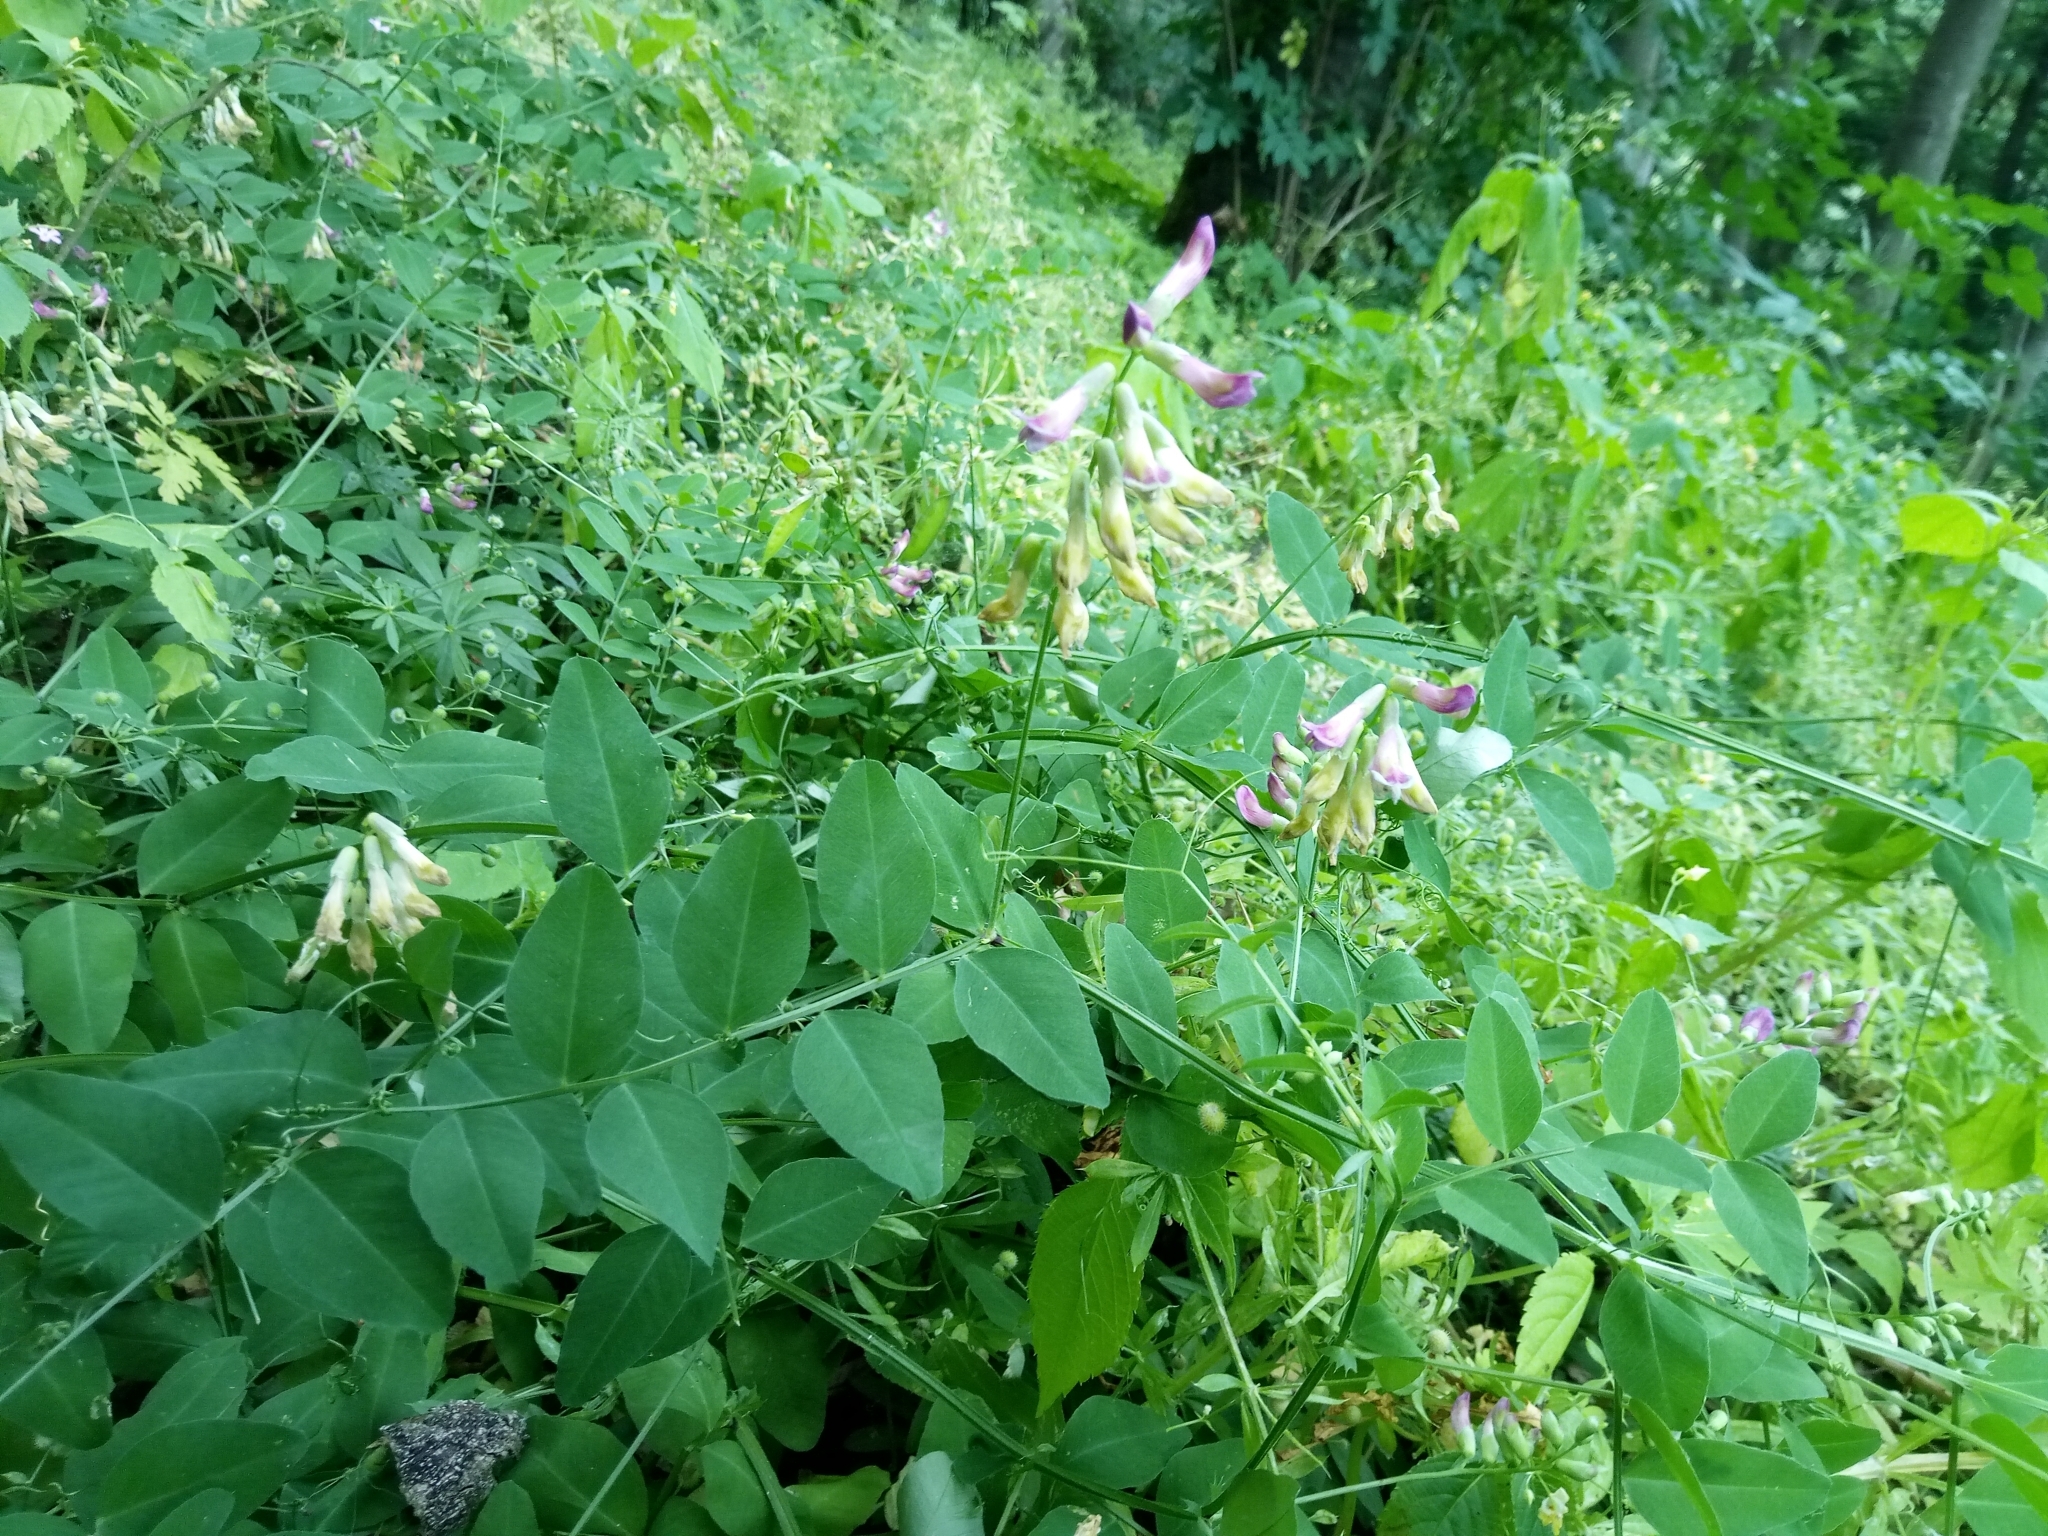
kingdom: Plantae
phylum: Tracheophyta
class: Magnoliopsida
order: Fabales
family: Fabaceae
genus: Vicia
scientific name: Vicia dumetorum
